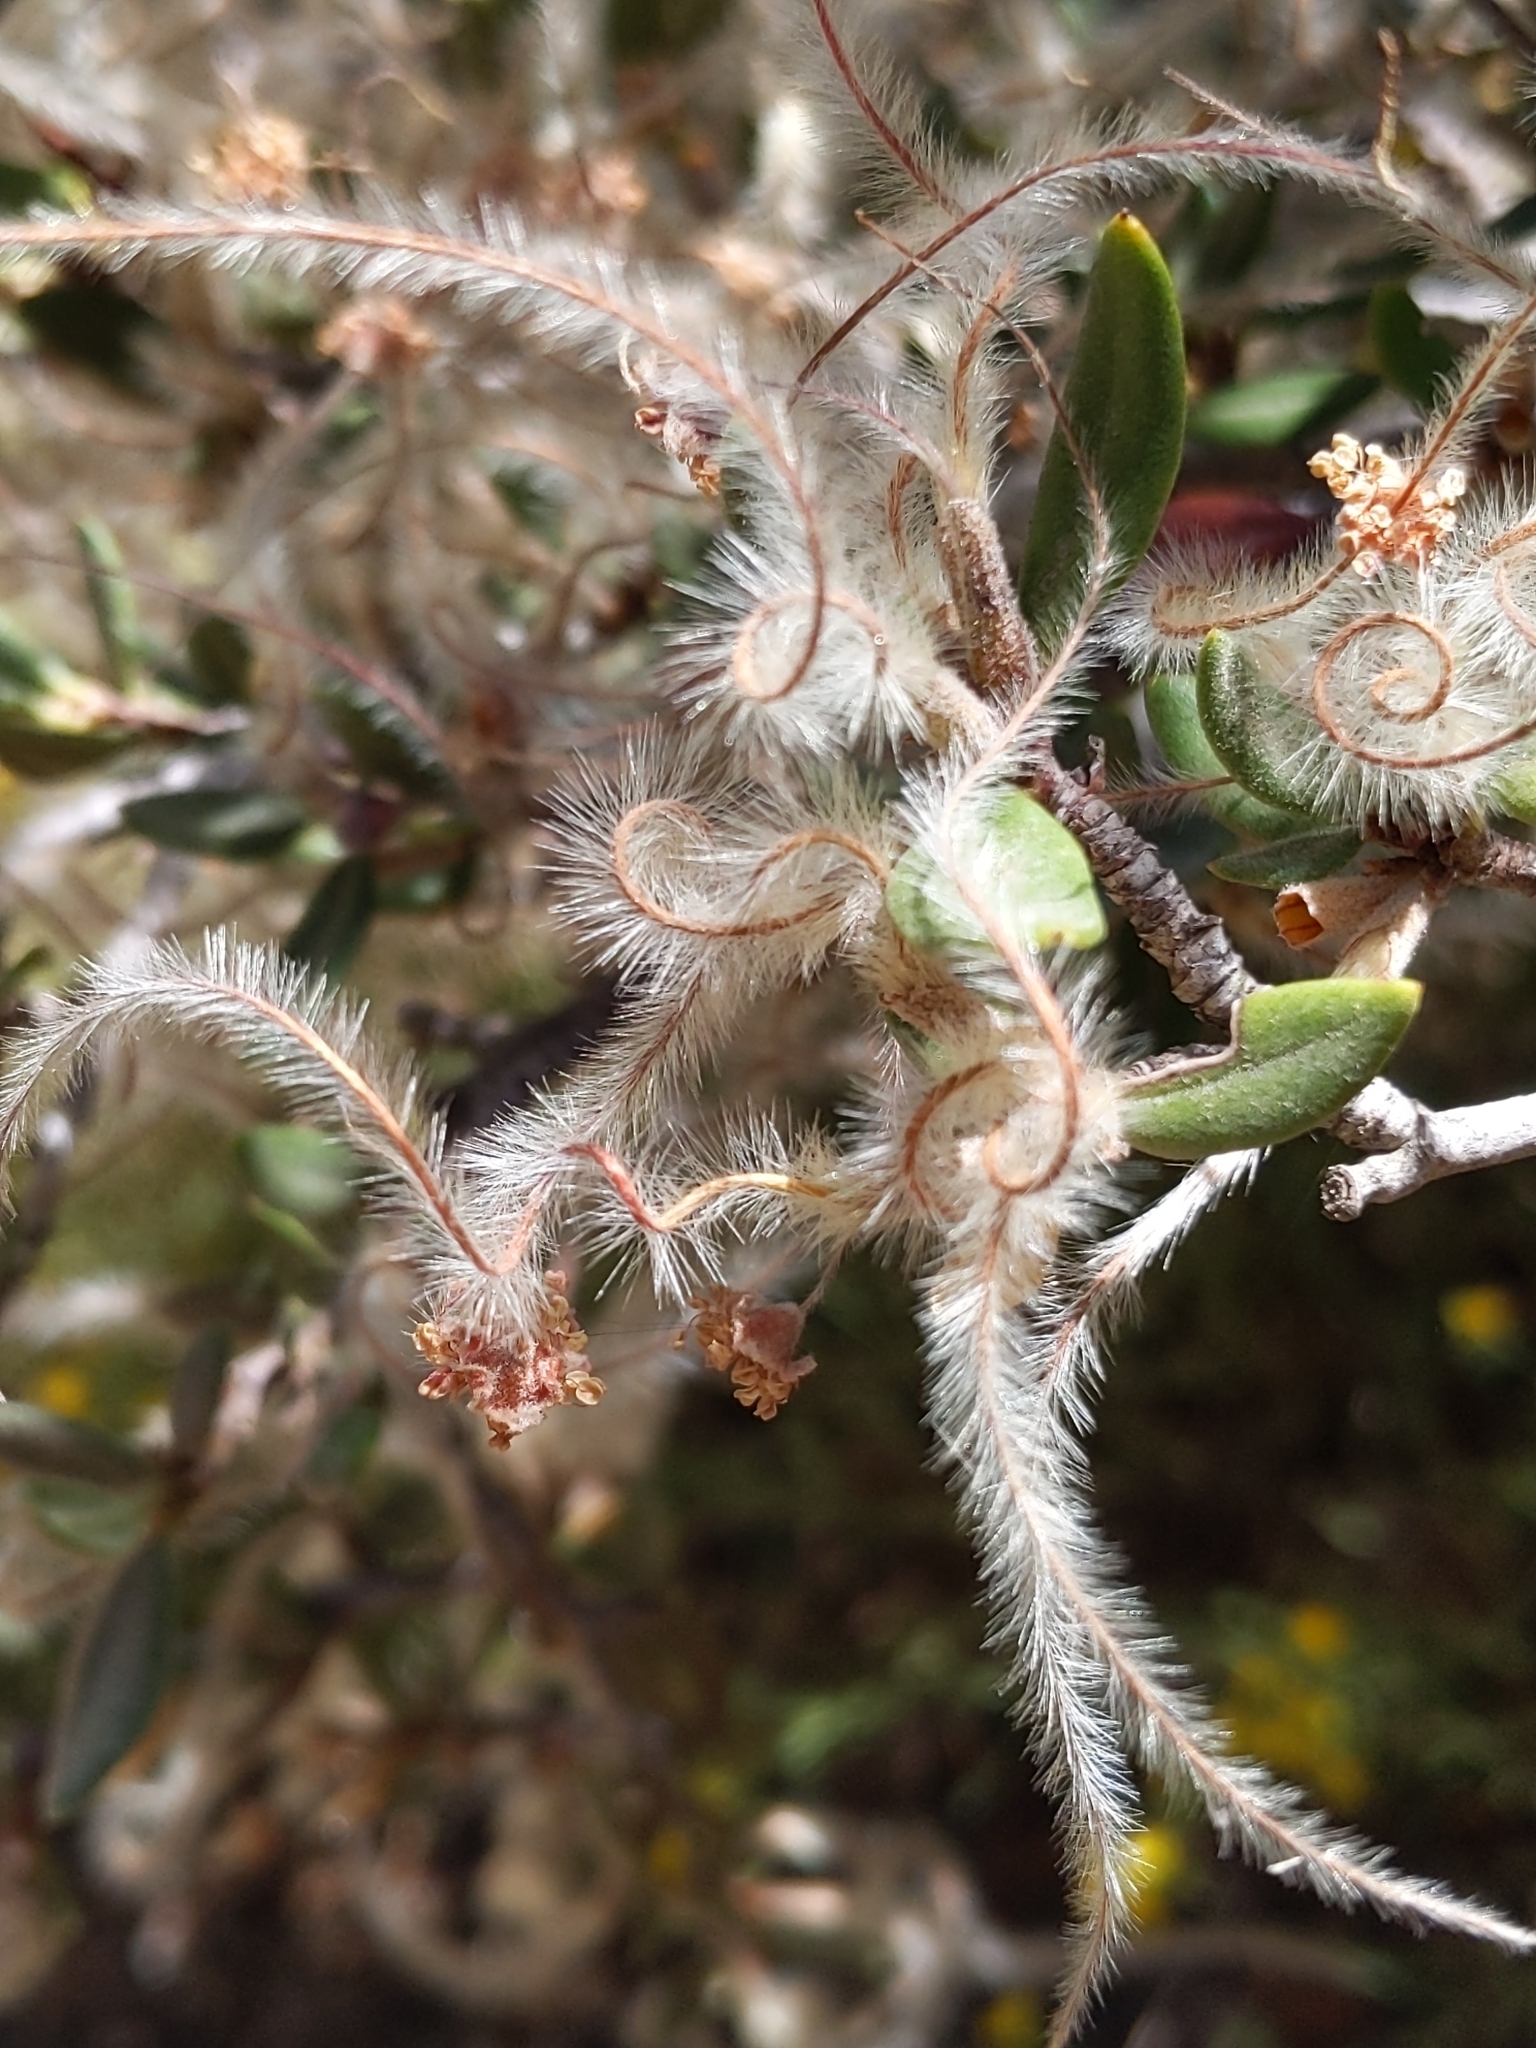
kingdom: Plantae
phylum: Tracheophyta
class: Magnoliopsida
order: Rosales
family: Rosaceae
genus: Cercocarpus
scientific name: Cercocarpus ledifolius
